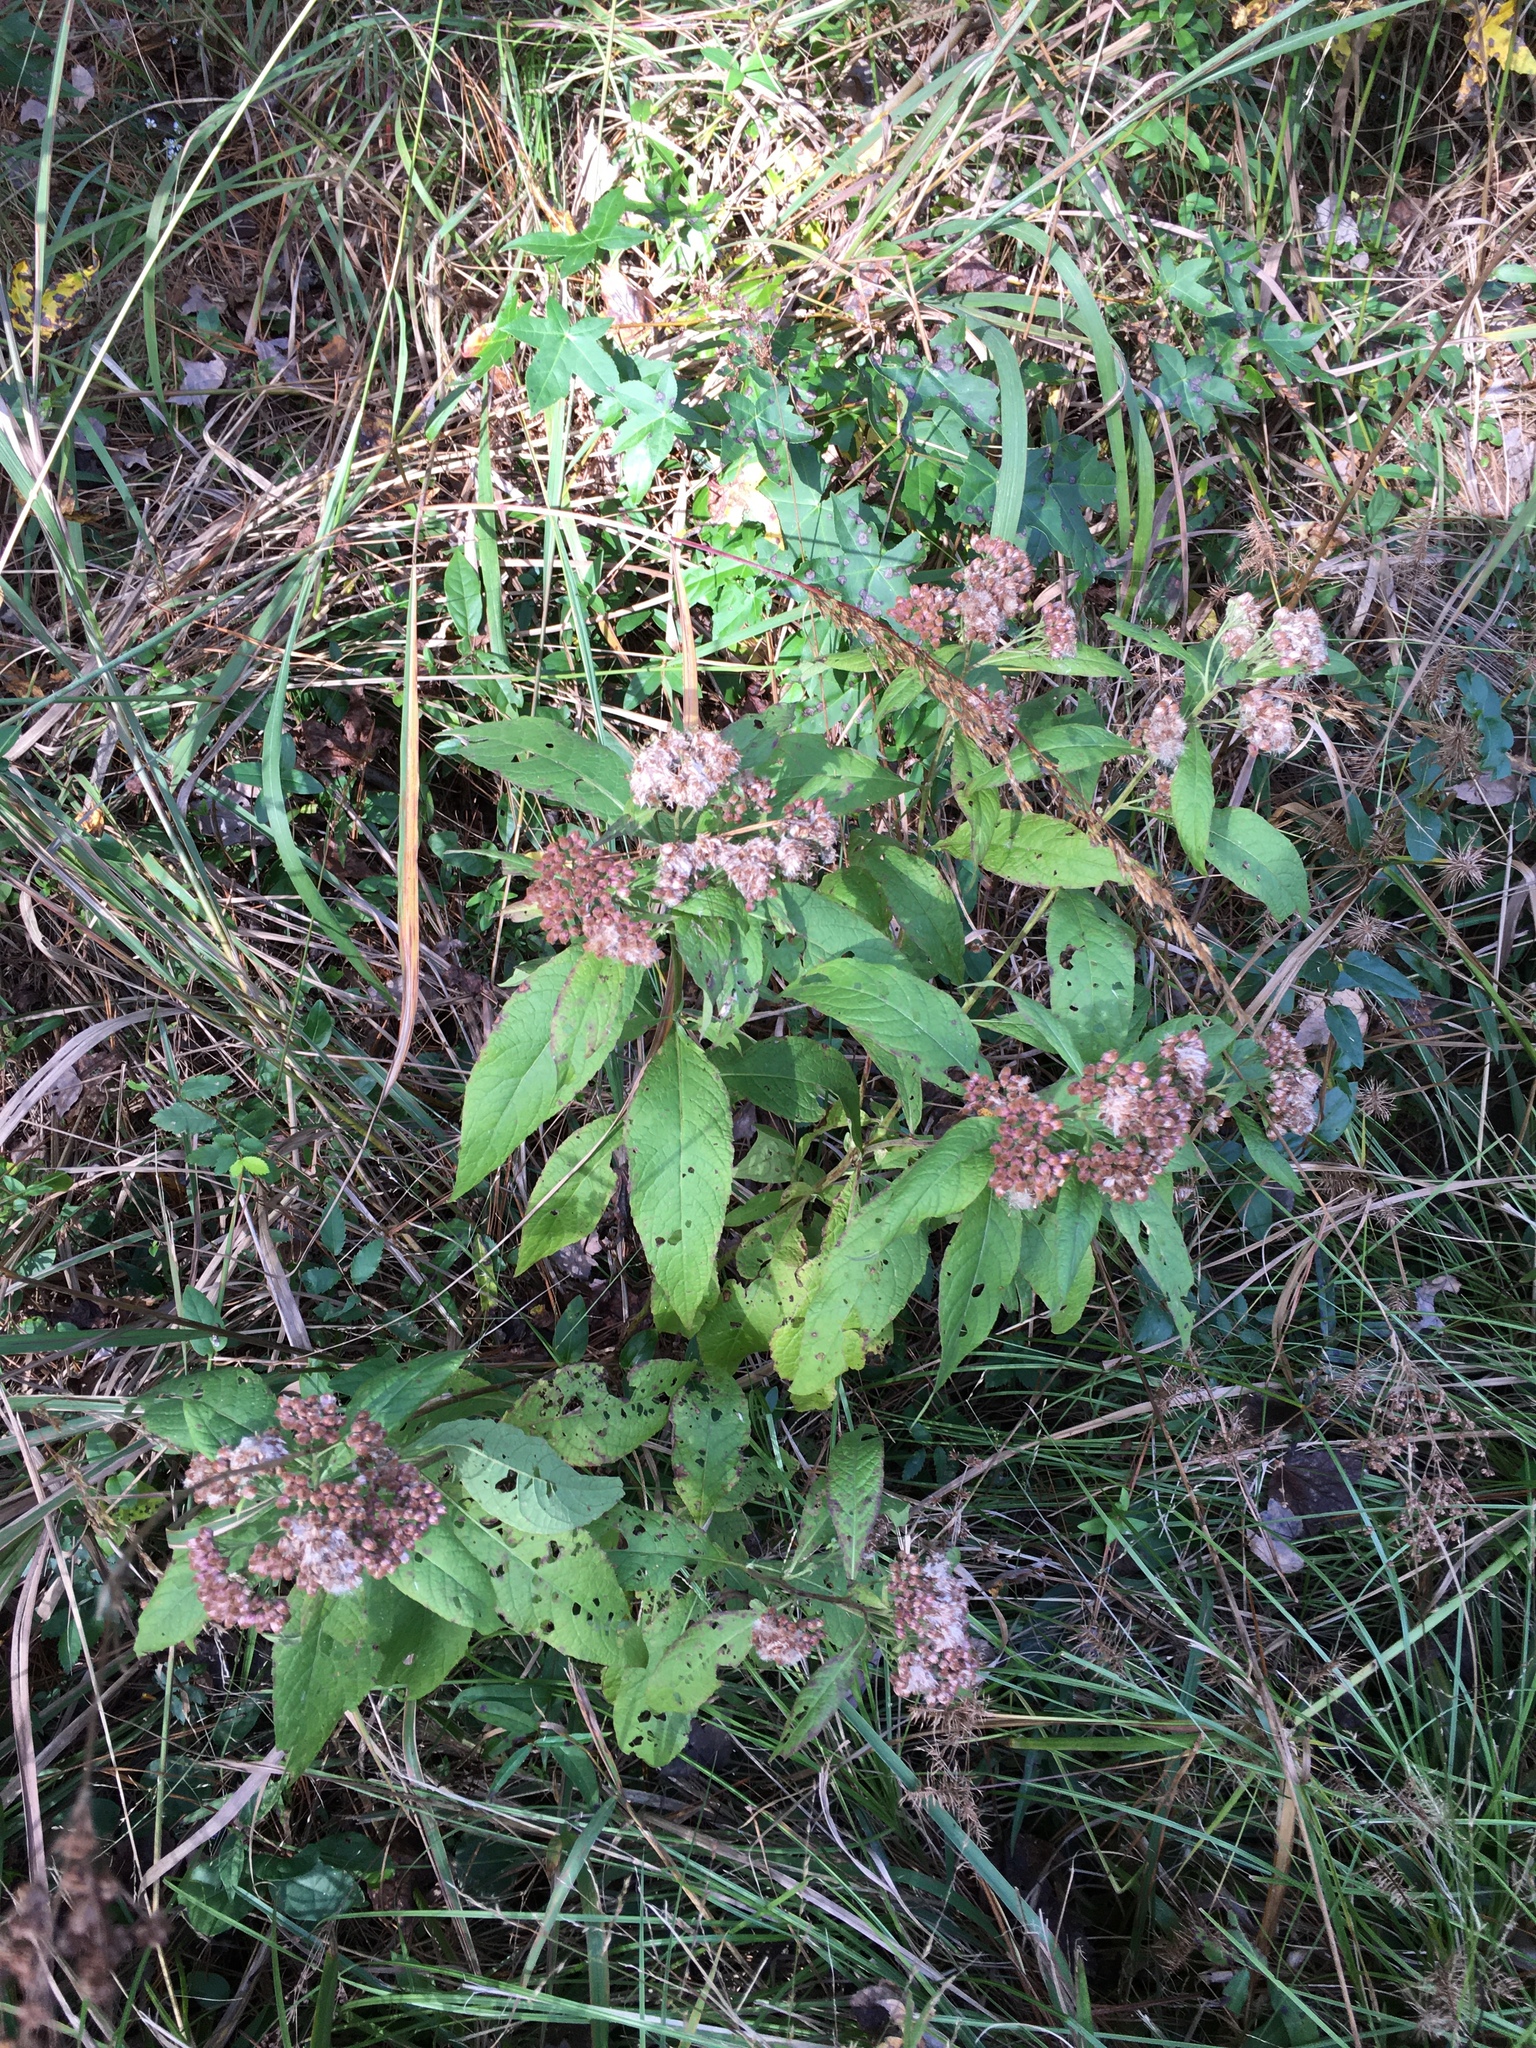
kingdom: Plantae
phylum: Tracheophyta
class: Magnoliopsida
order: Asterales
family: Asteraceae
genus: Pluchea
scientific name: Pluchea camphorata
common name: Camphor pluchea
